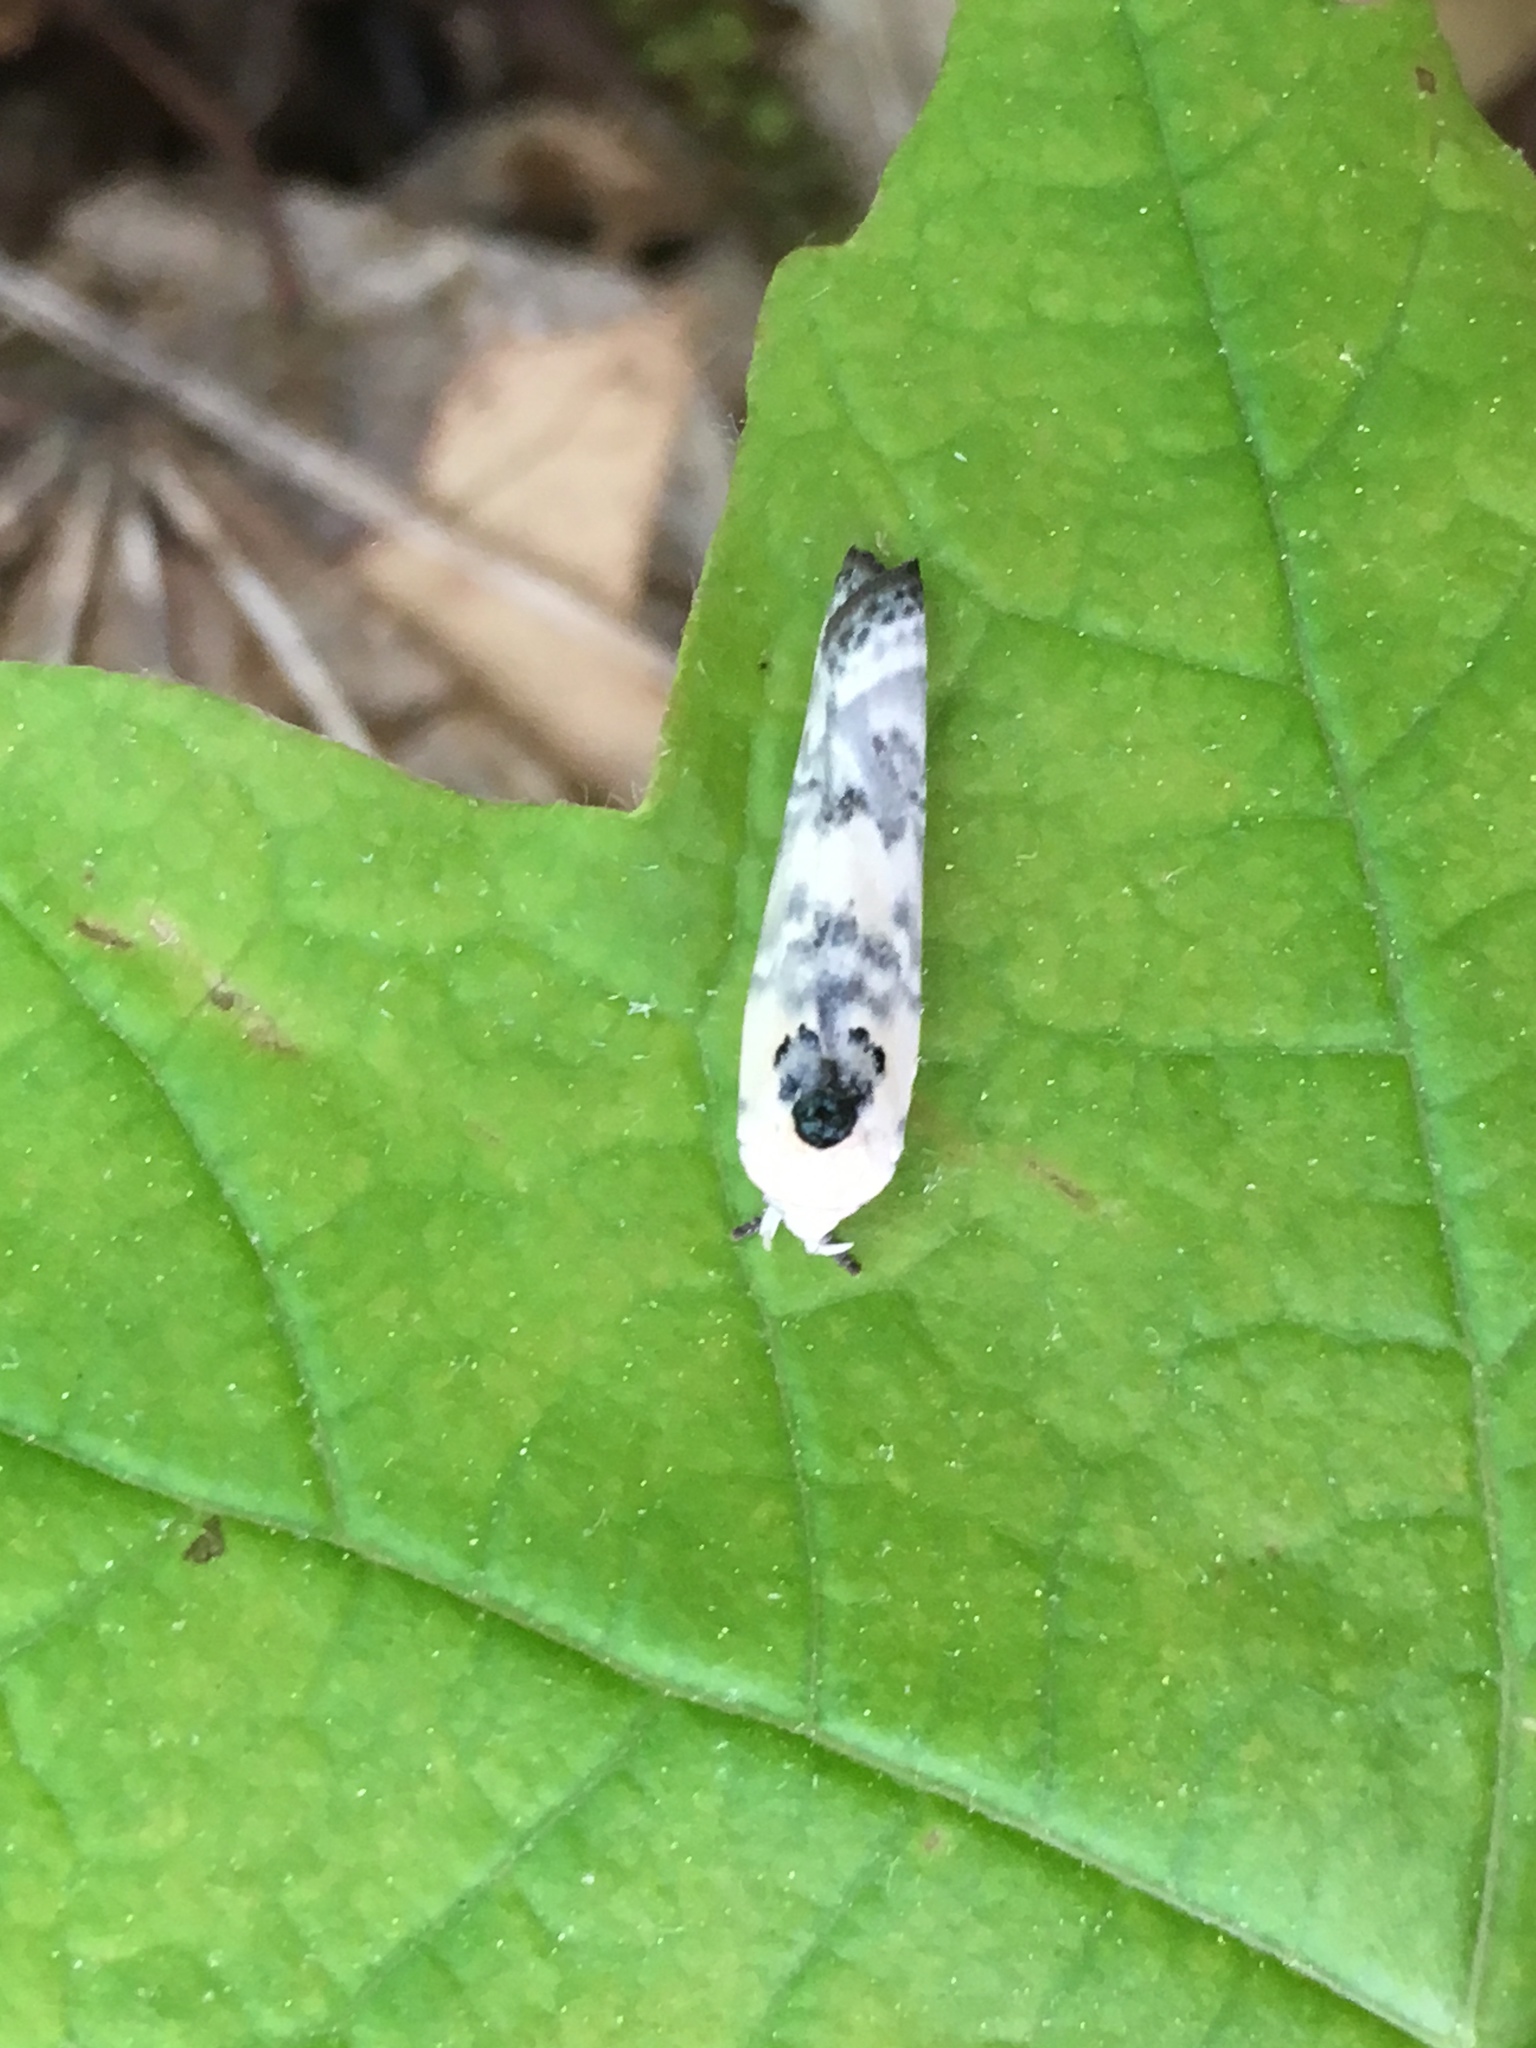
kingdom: Animalia
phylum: Arthropoda
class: Insecta
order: Lepidoptera
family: Depressariidae
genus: Antaeotricha
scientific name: Antaeotricha schlaegeri
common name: Schlaeger's fruitworm moth
